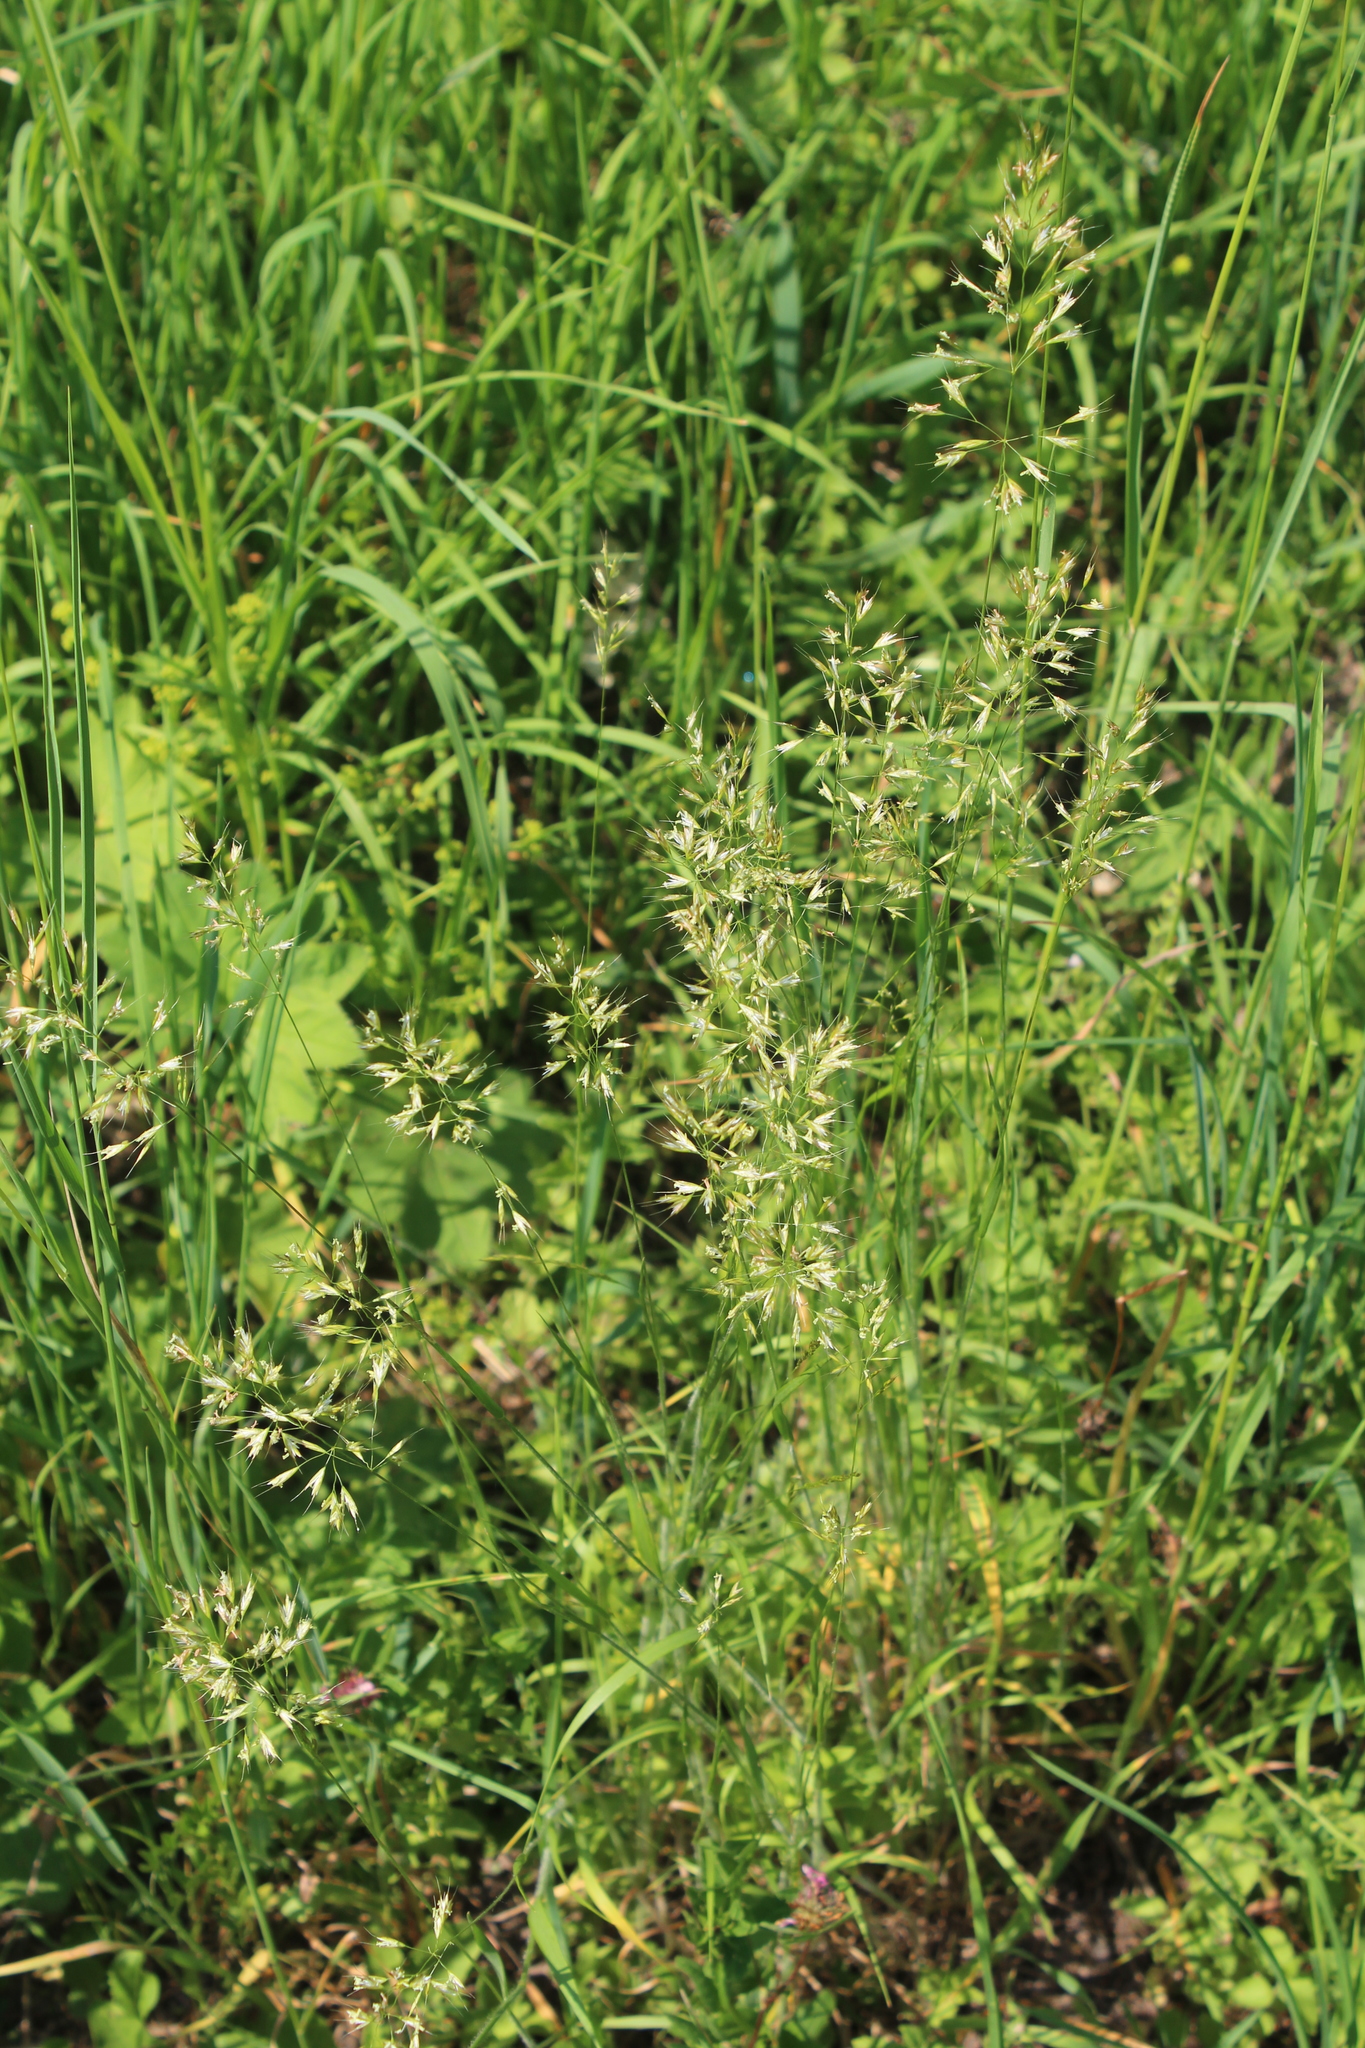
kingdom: Plantae
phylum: Tracheophyta
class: Liliopsida
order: Poales
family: Poaceae
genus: Trisetum
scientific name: Trisetum flavescens
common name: Yellow oat-grass
